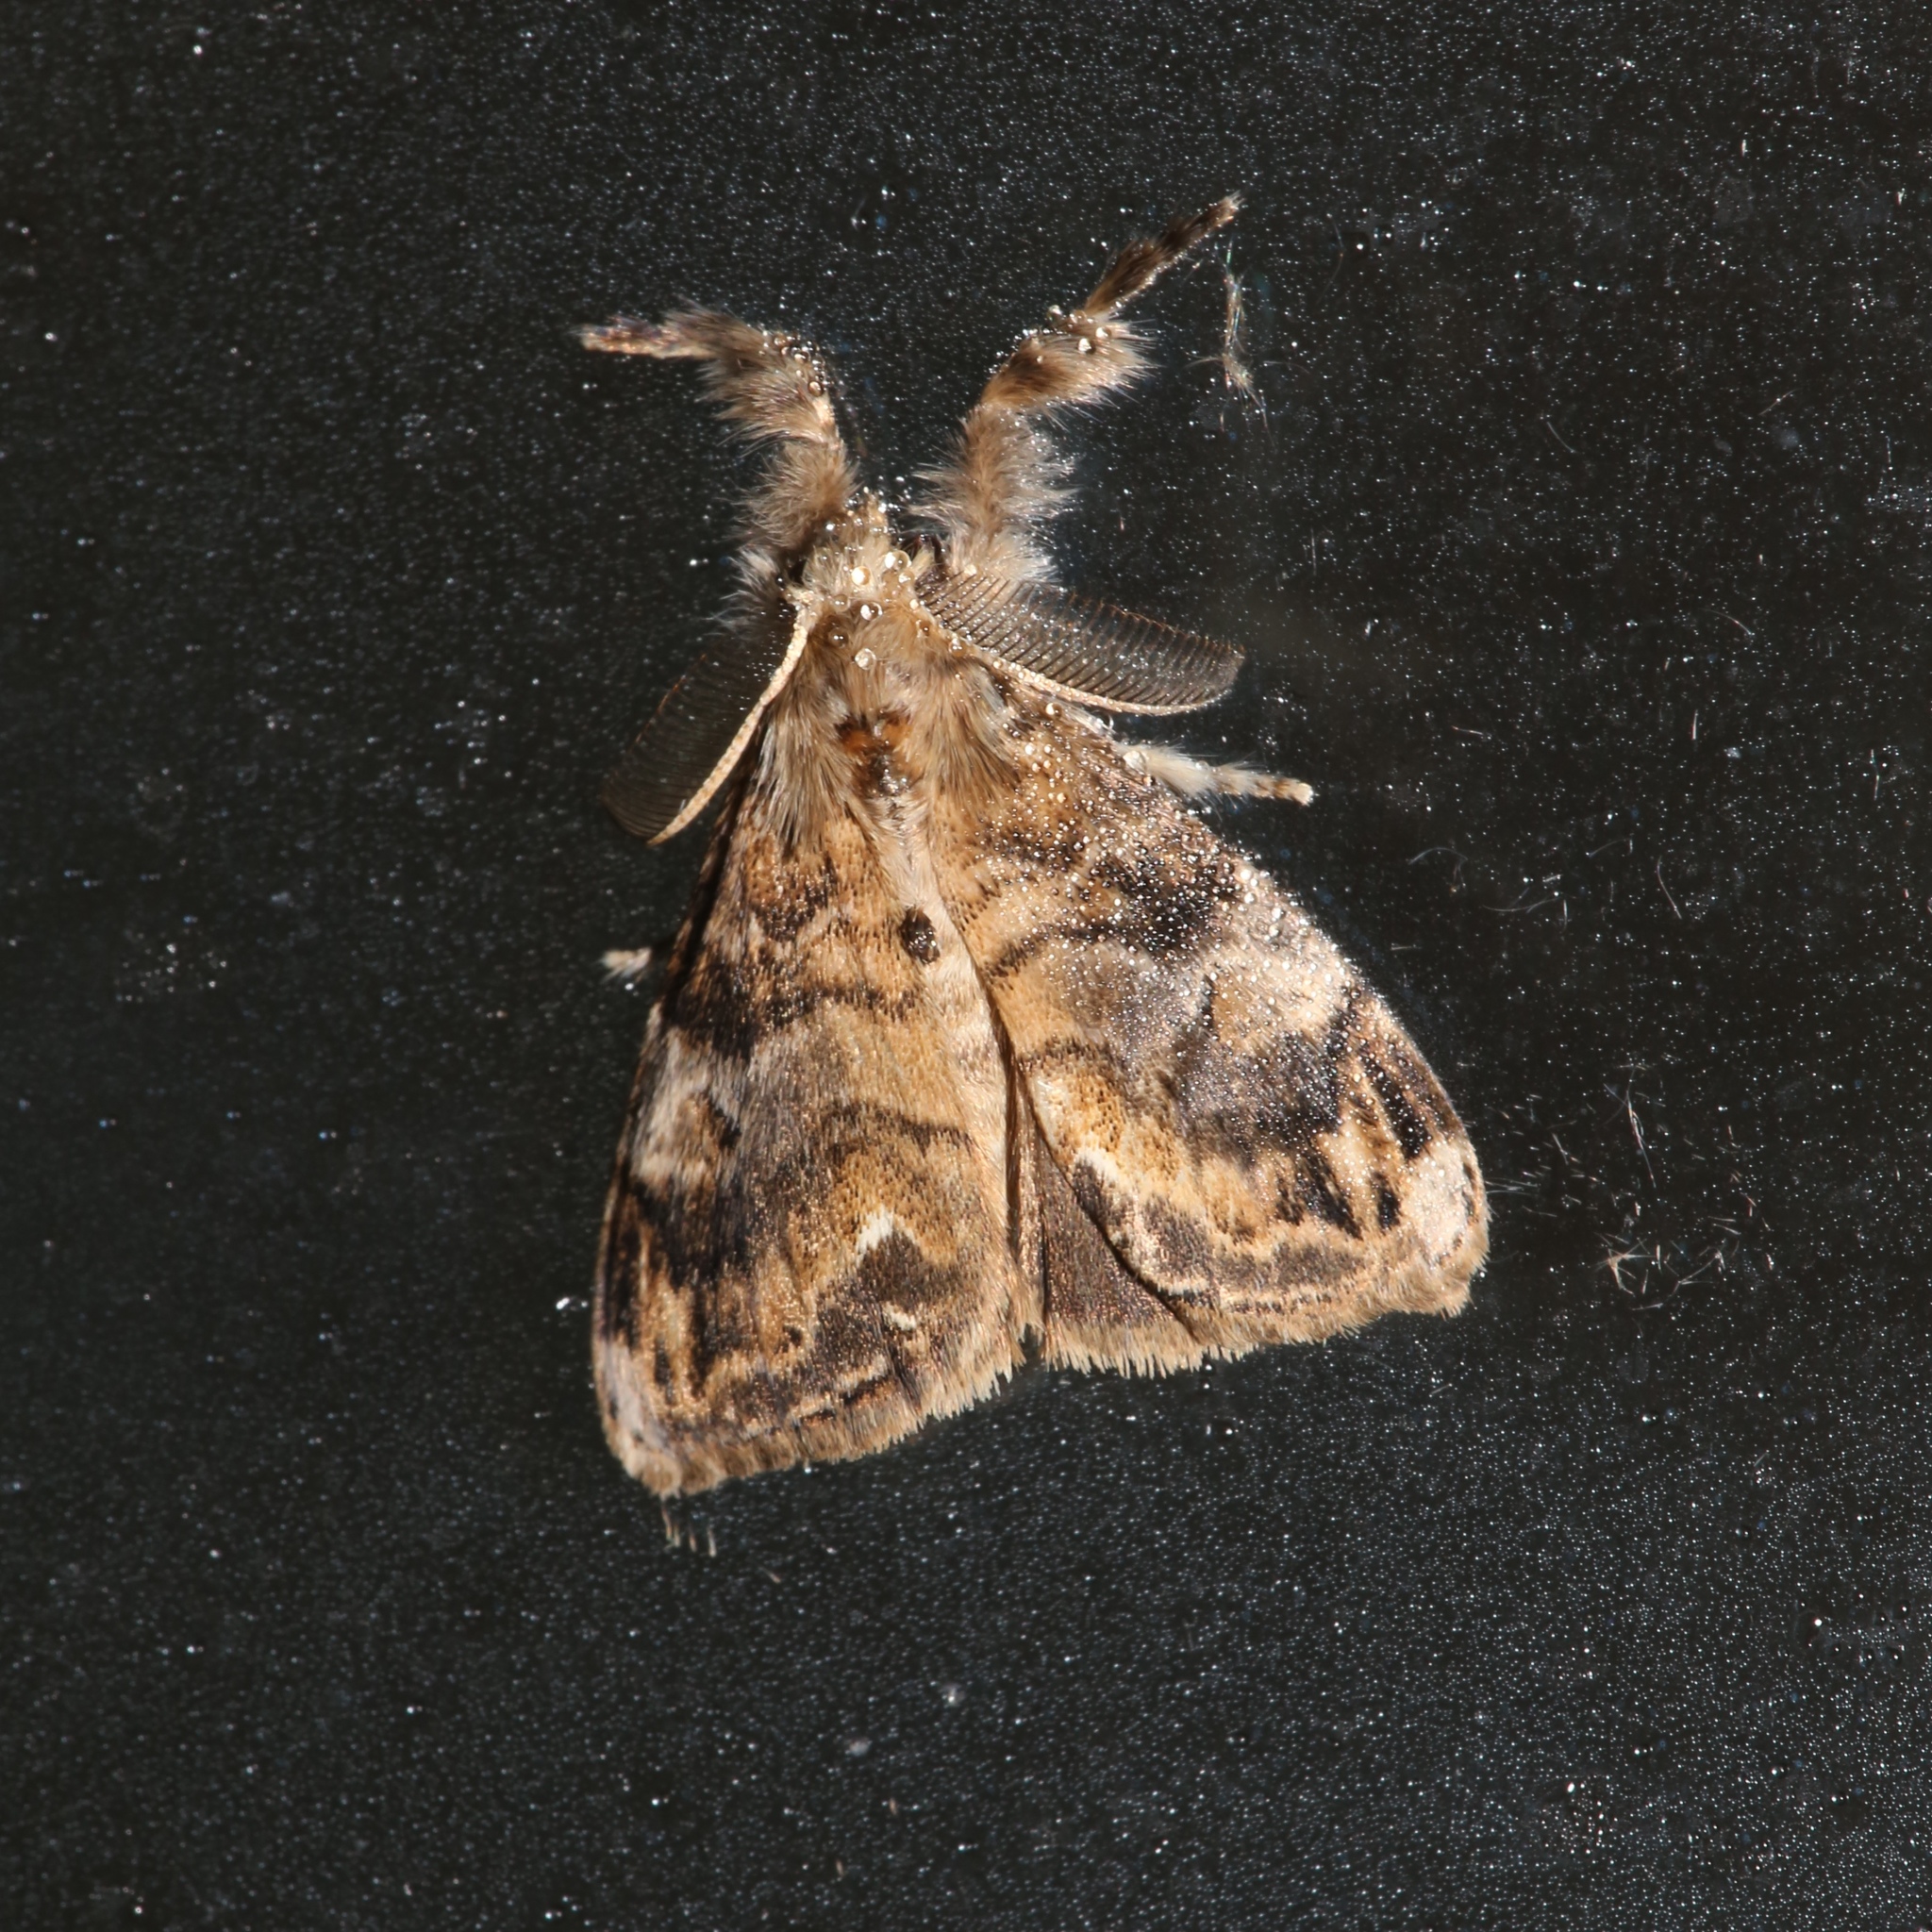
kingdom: Animalia
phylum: Arthropoda
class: Insecta
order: Lepidoptera
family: Erebidae
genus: Orgyia
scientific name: Orgyia definita
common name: Definite tussock moth
